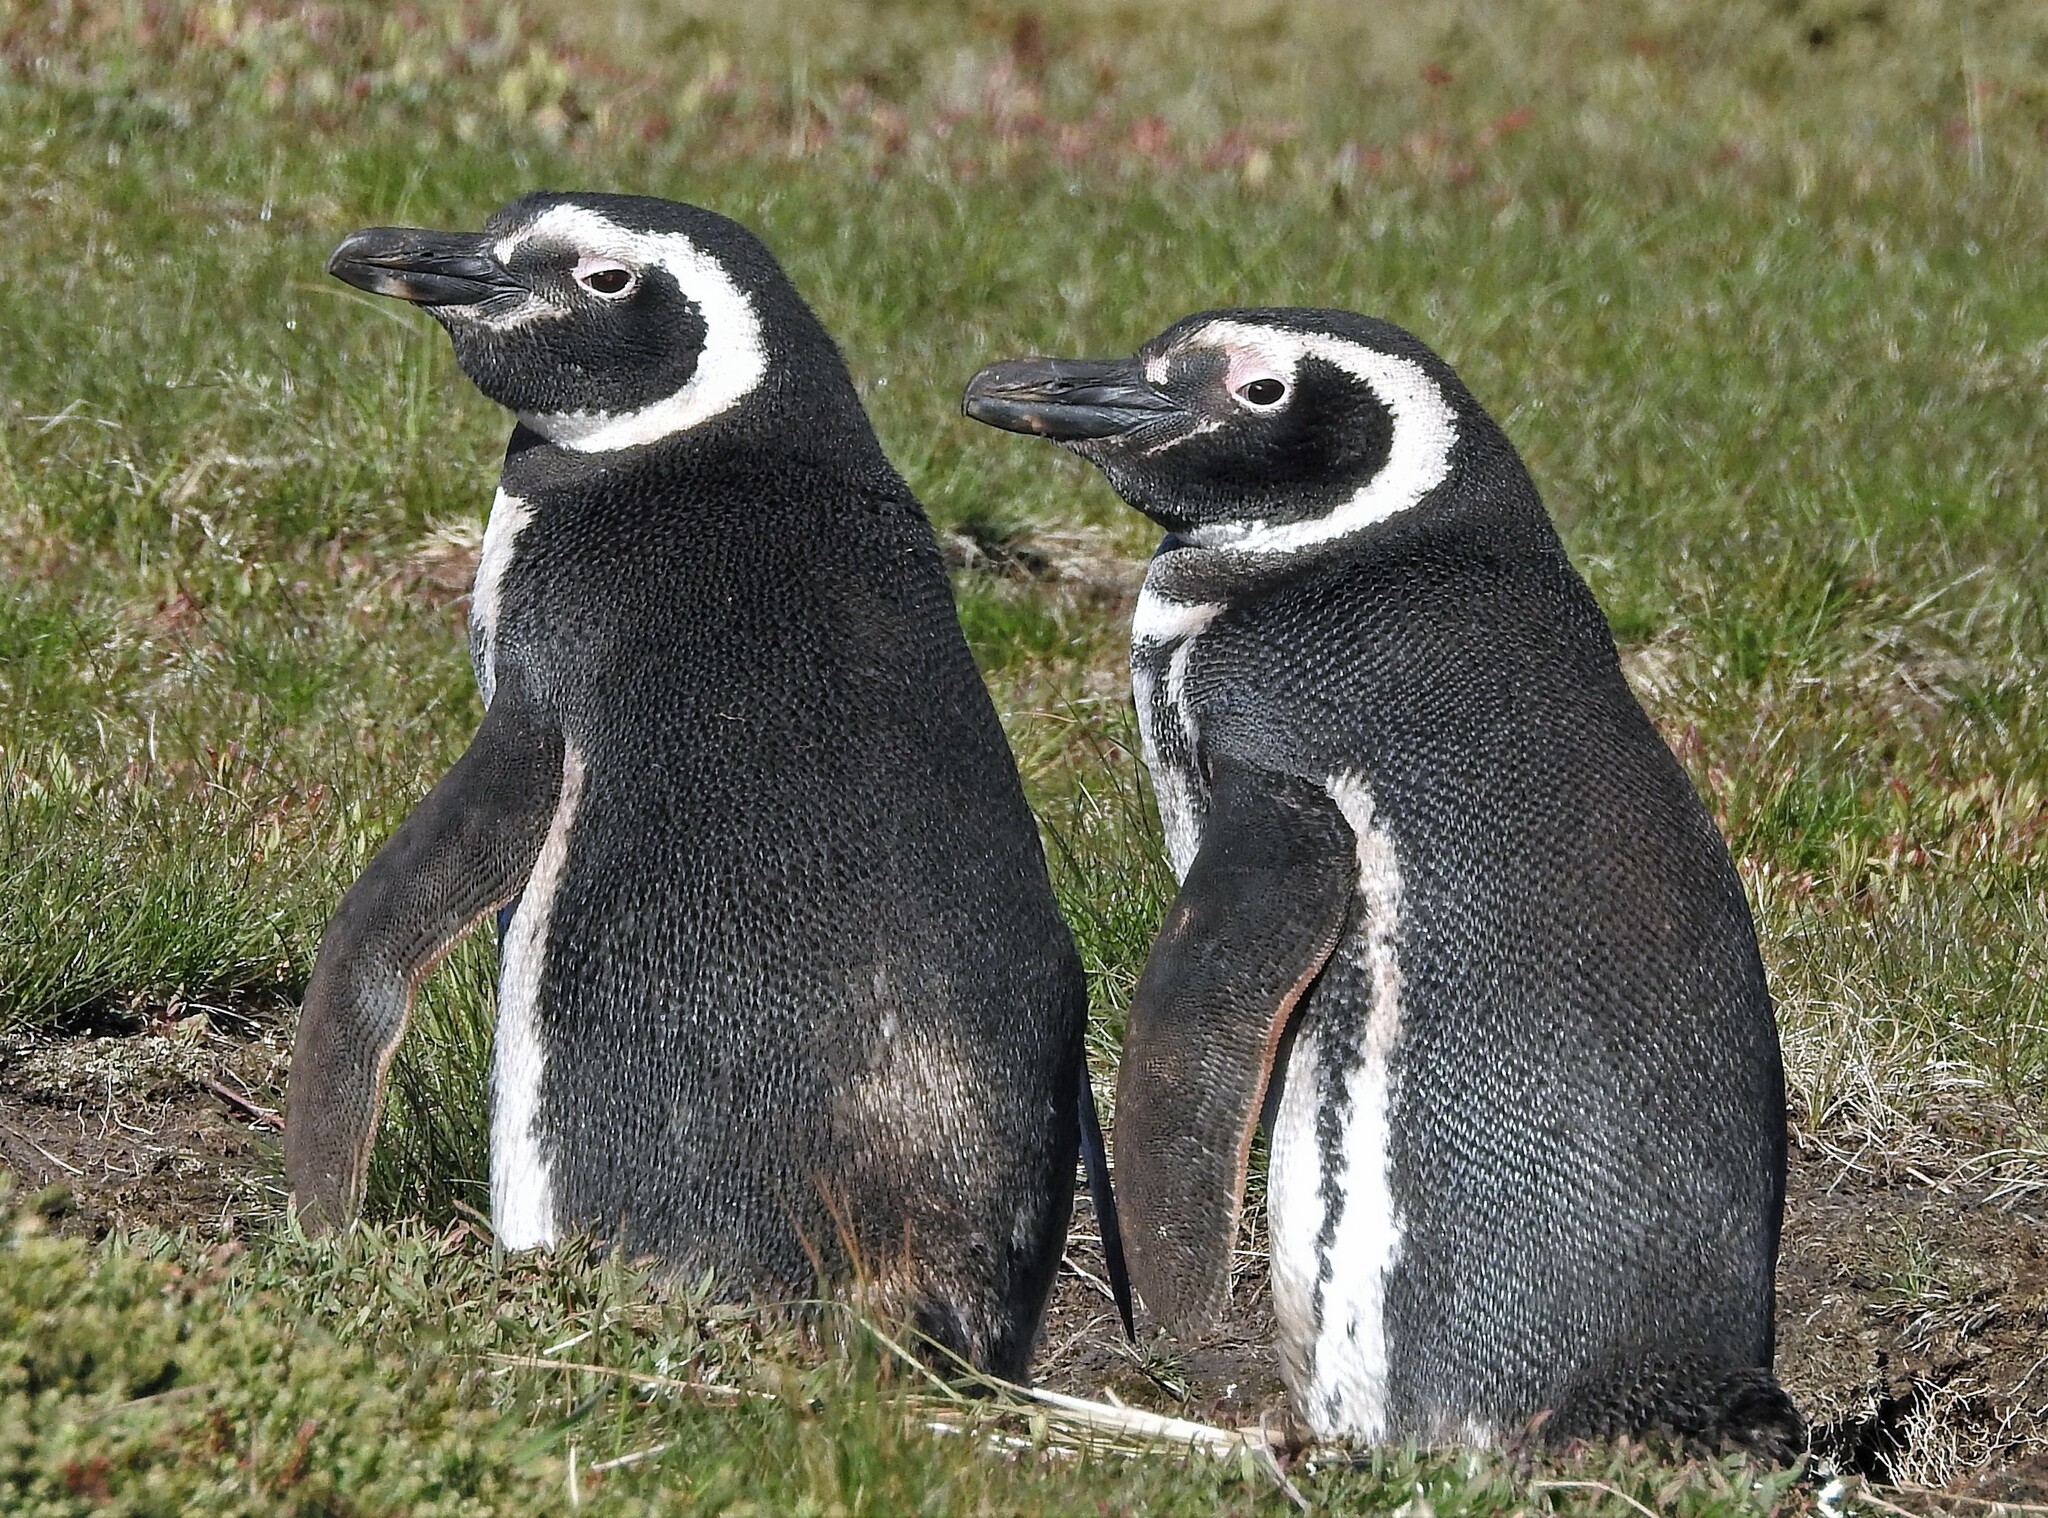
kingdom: Animalia
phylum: Chordata
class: Aves
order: Sphenisciformes
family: Spheniscidae
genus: Spheniscus
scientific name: Spheniscus magellanicus
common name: Magellanic penguin
